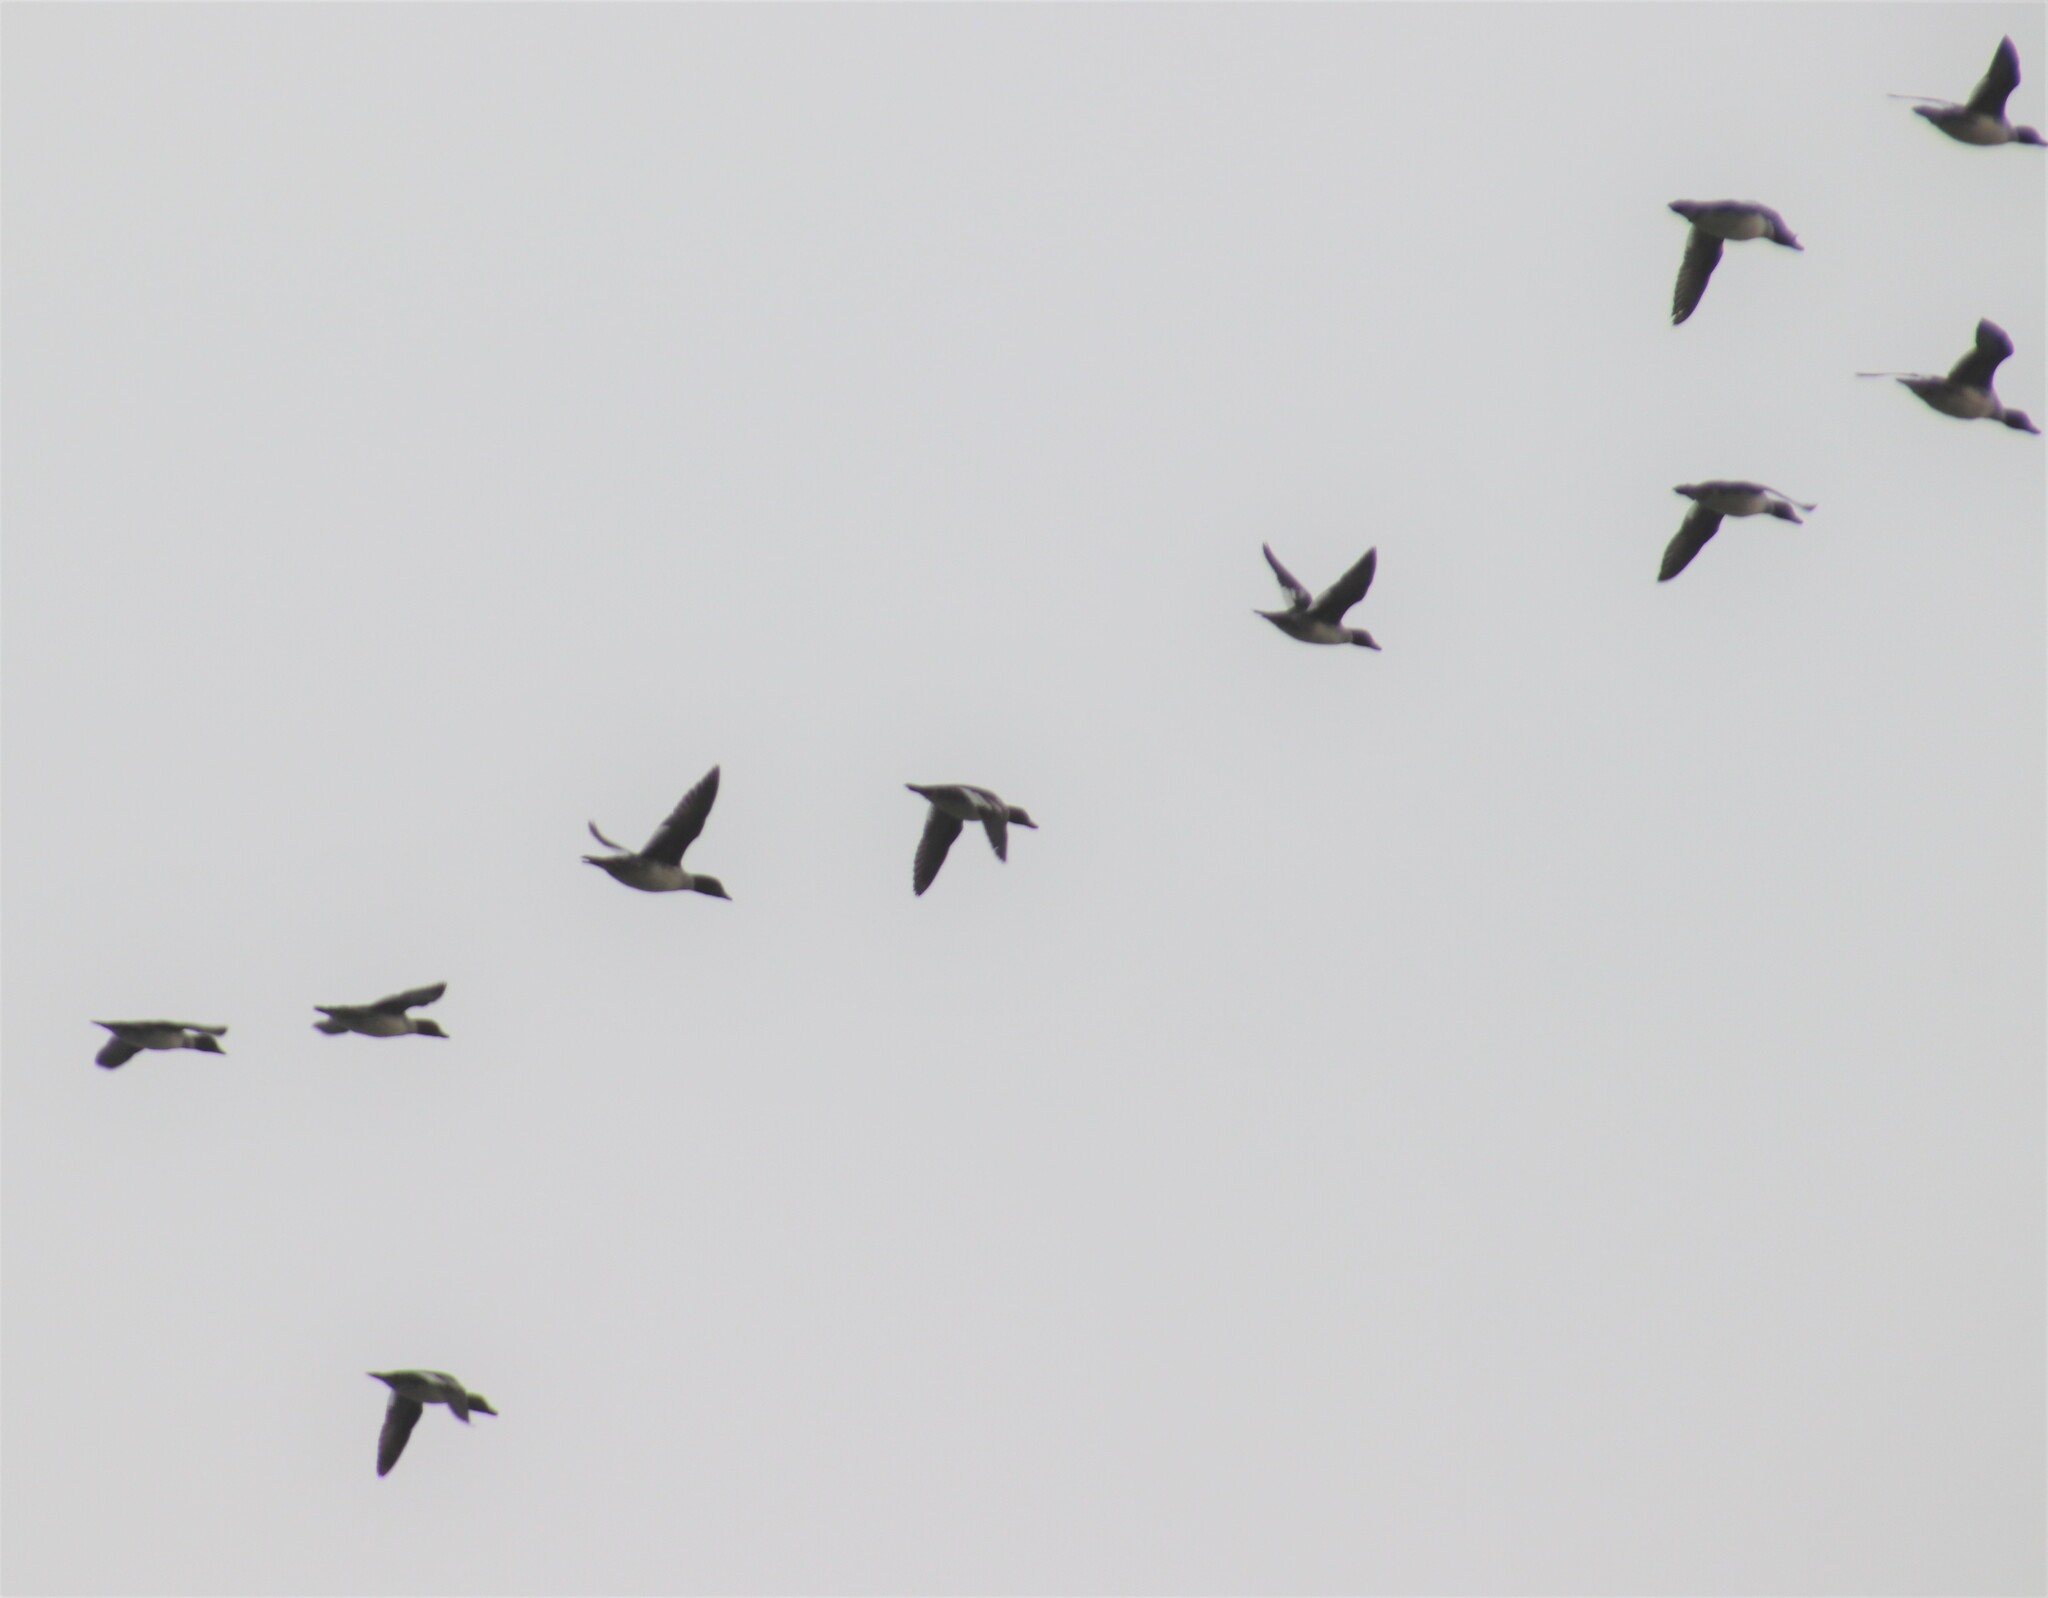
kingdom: Animalia
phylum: Chordata
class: Aves
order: Anseriformes
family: Anatidae
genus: Bucephala
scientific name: Bucephala clangula
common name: Common goldeneye
